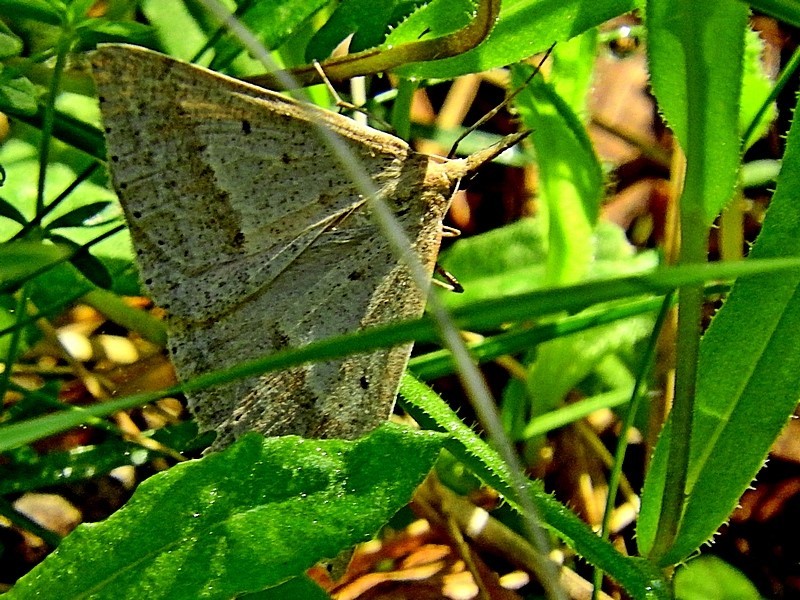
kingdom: Animalia
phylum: Arthropoda
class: Insecta
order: Lepidoptera
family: Geometridae
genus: Epidesmia
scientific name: Epidesmia hypenaria
